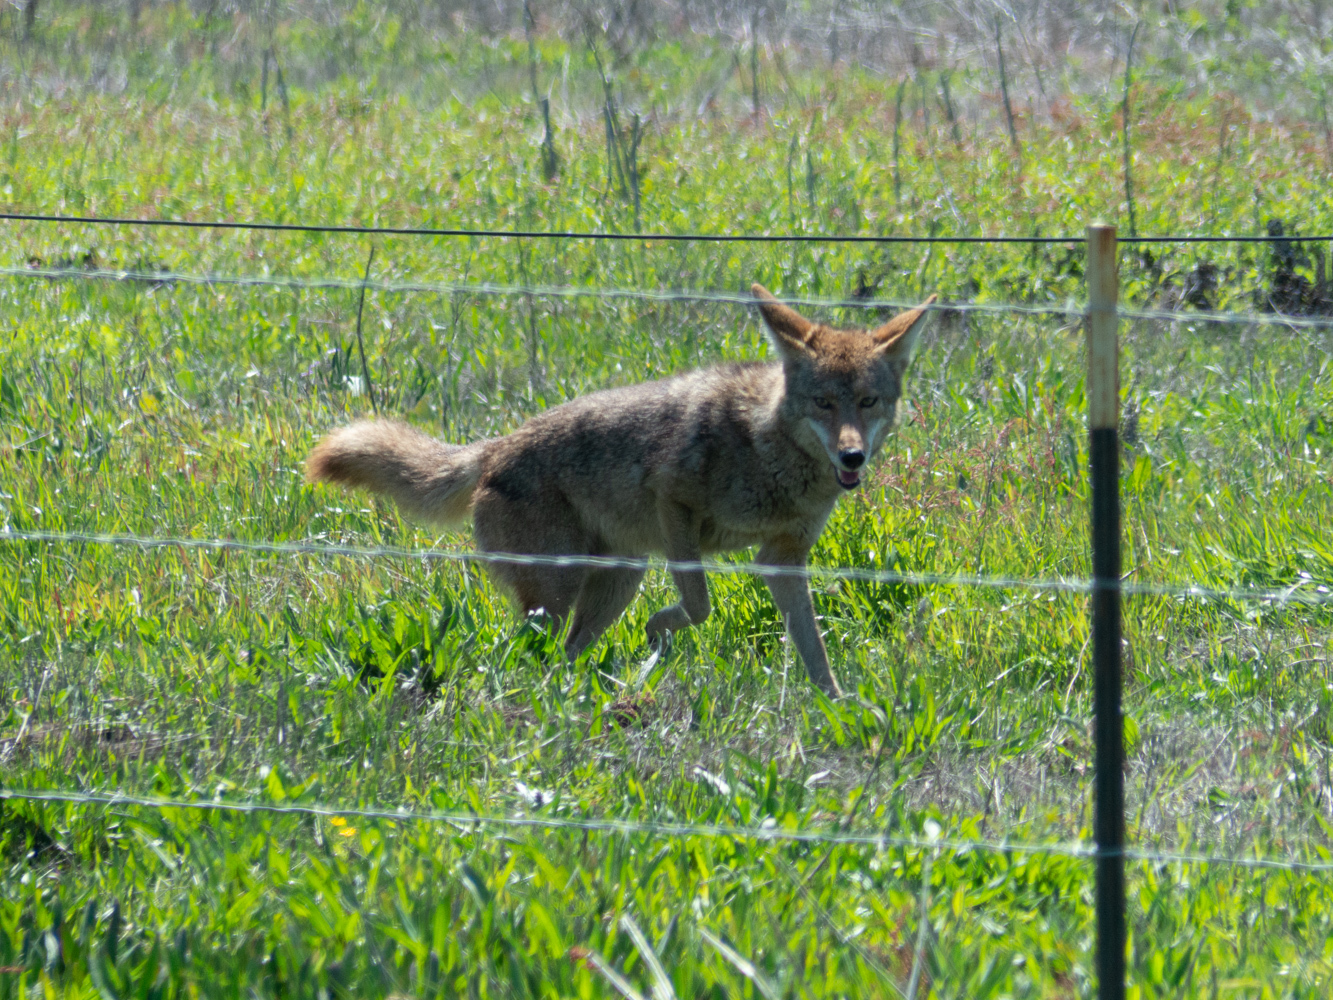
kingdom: Animalia
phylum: Chordata
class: Mammalia
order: Carnivora
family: Canidae
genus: Canis
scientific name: Canis latrans
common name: Coyote
